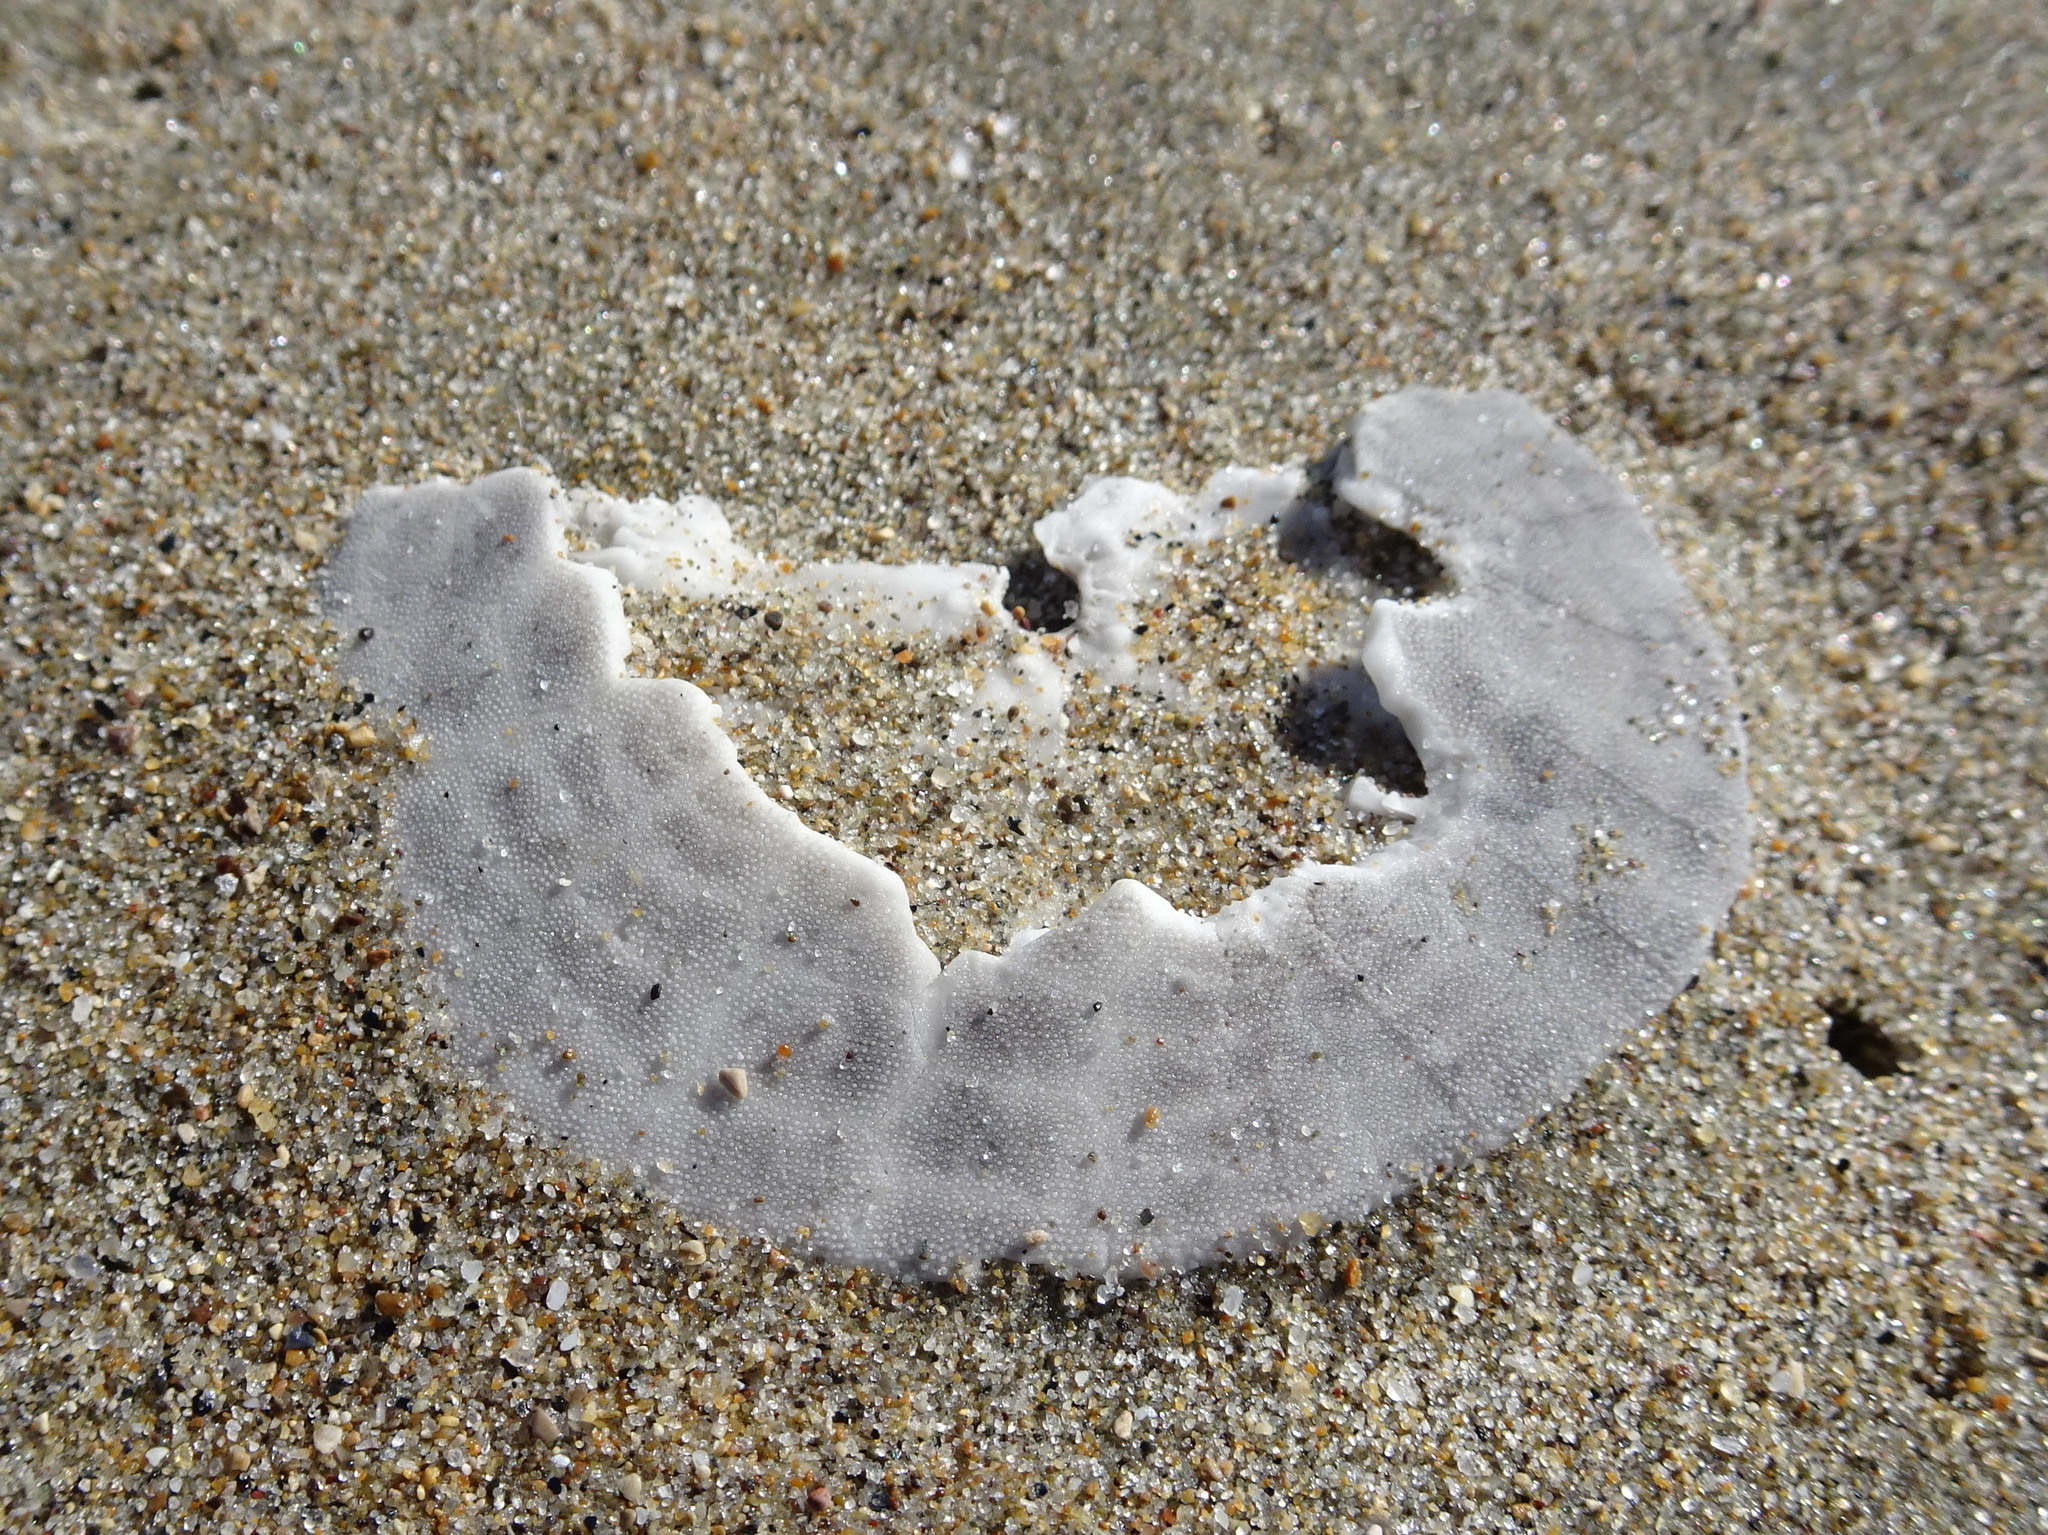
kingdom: Animalia
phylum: Echinodermata
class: Echinoidea
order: Echinolampadacea
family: Dendrasteridae
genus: Dendraster
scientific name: Dendraster excentricus
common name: Eccentric sand dollar sea urchin
